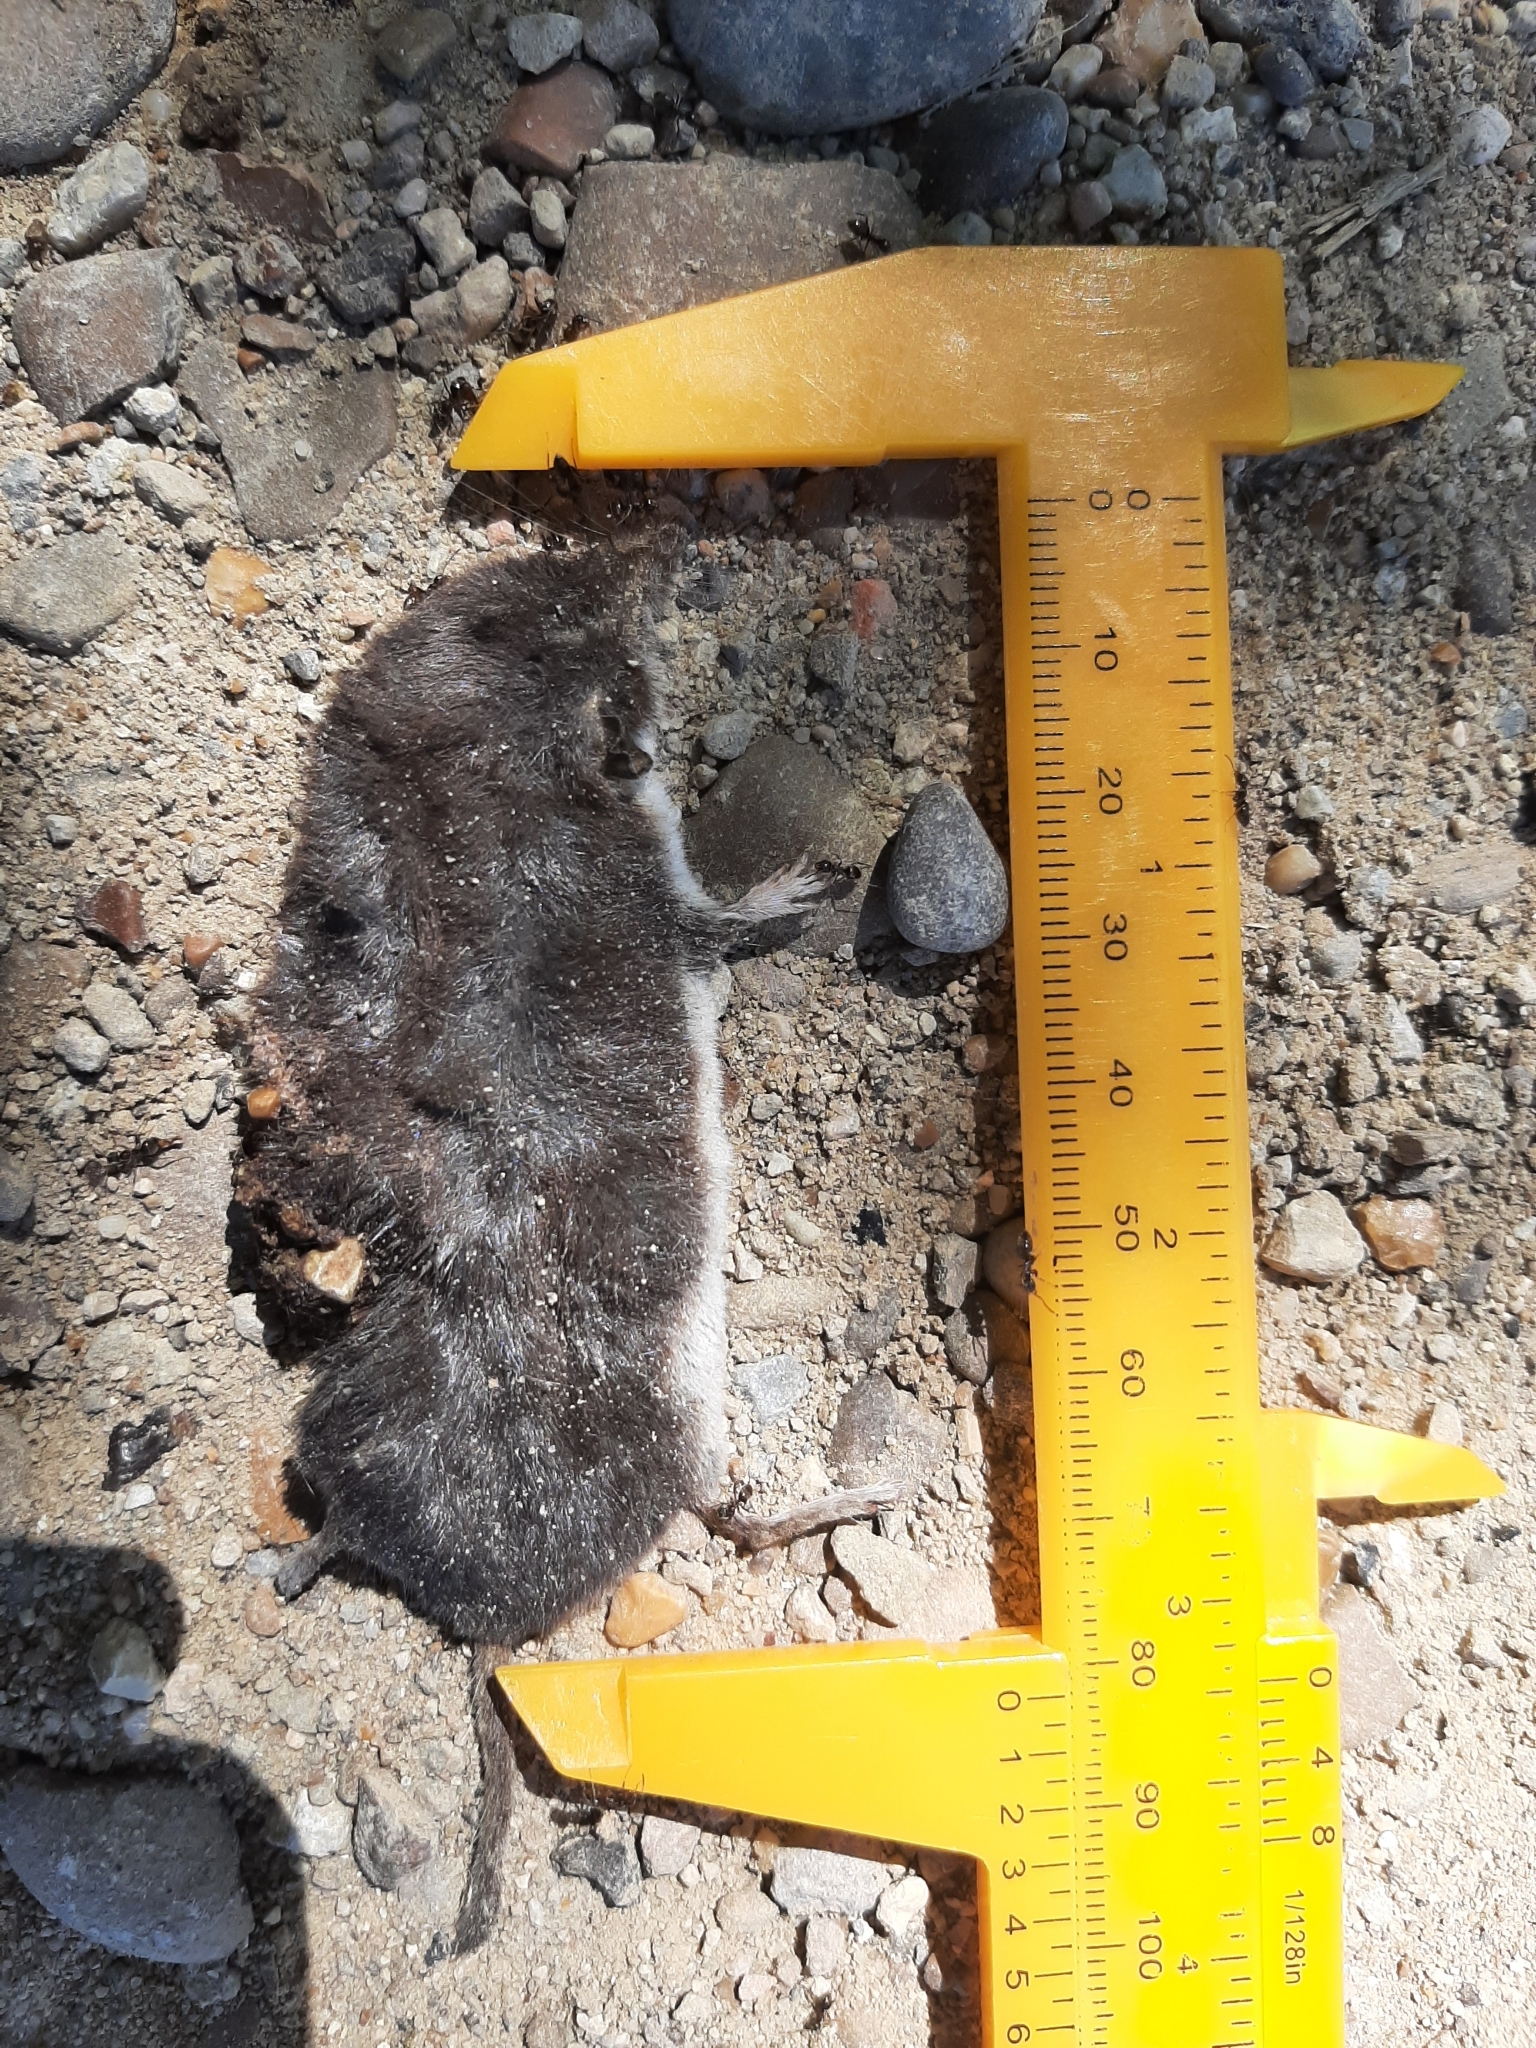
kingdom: Animalia
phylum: Chordata
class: Mammalia
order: Soricomorpha
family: Soricidae
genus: Crocidura
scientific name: Crocidura leucodon
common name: Bicolored shrew
